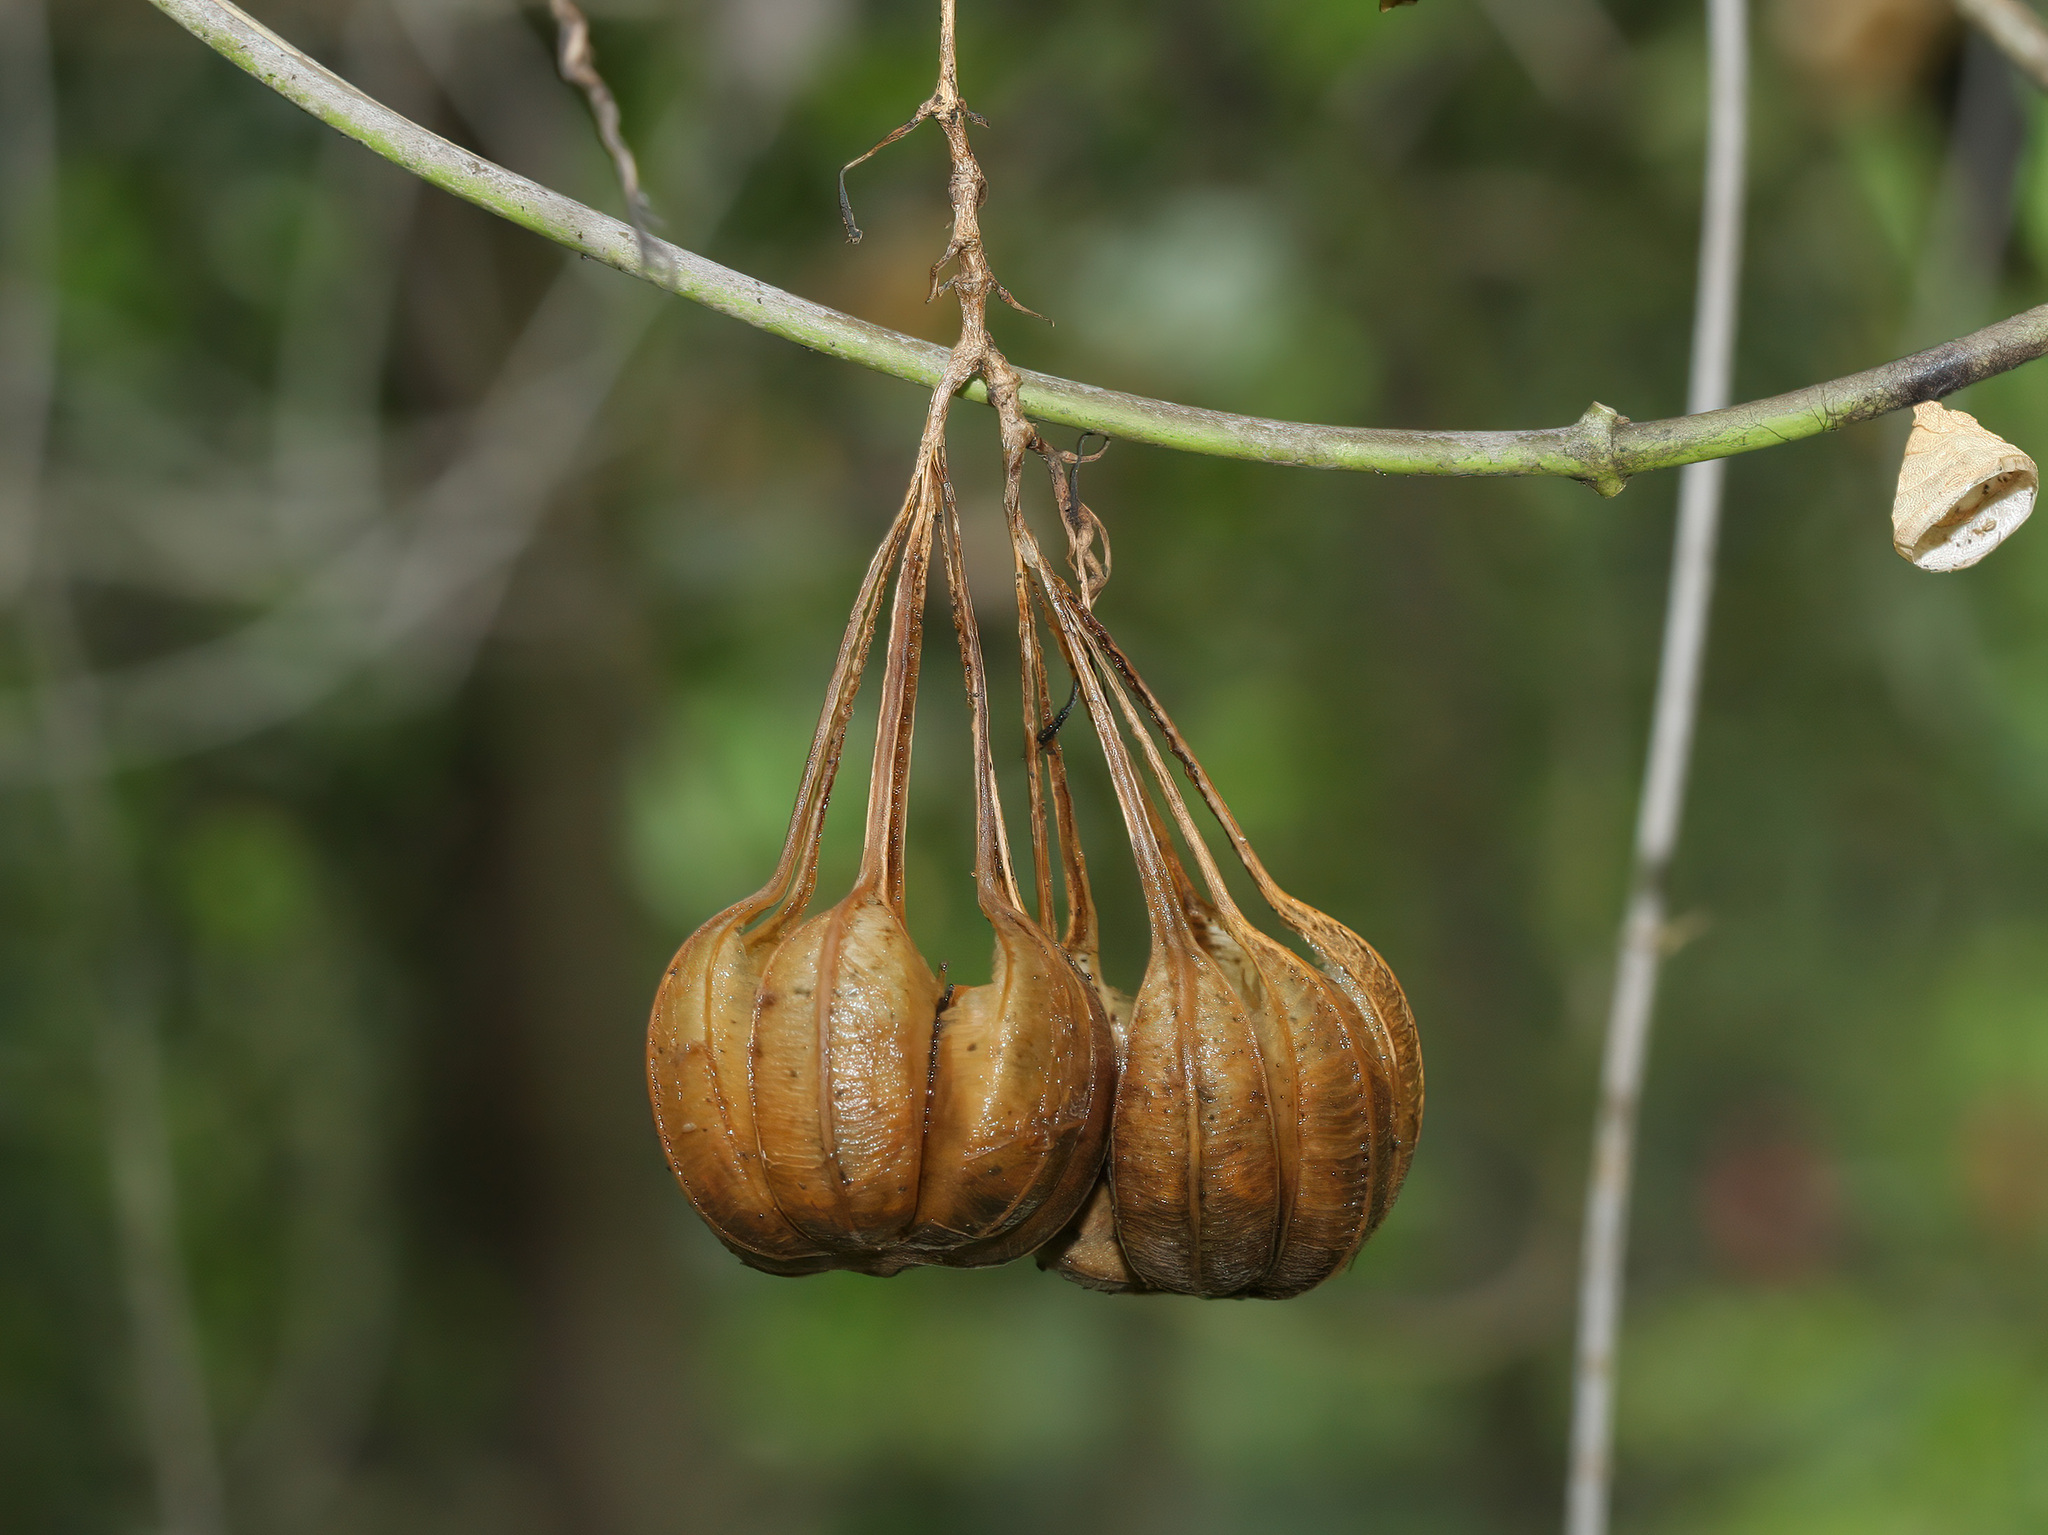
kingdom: Plantae
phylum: Tracheophyta
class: Magnoliopsida
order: Piperales
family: Aristolochiaceae
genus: Aristolochia
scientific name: Aristolochia acuminata
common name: Indian birthwort
